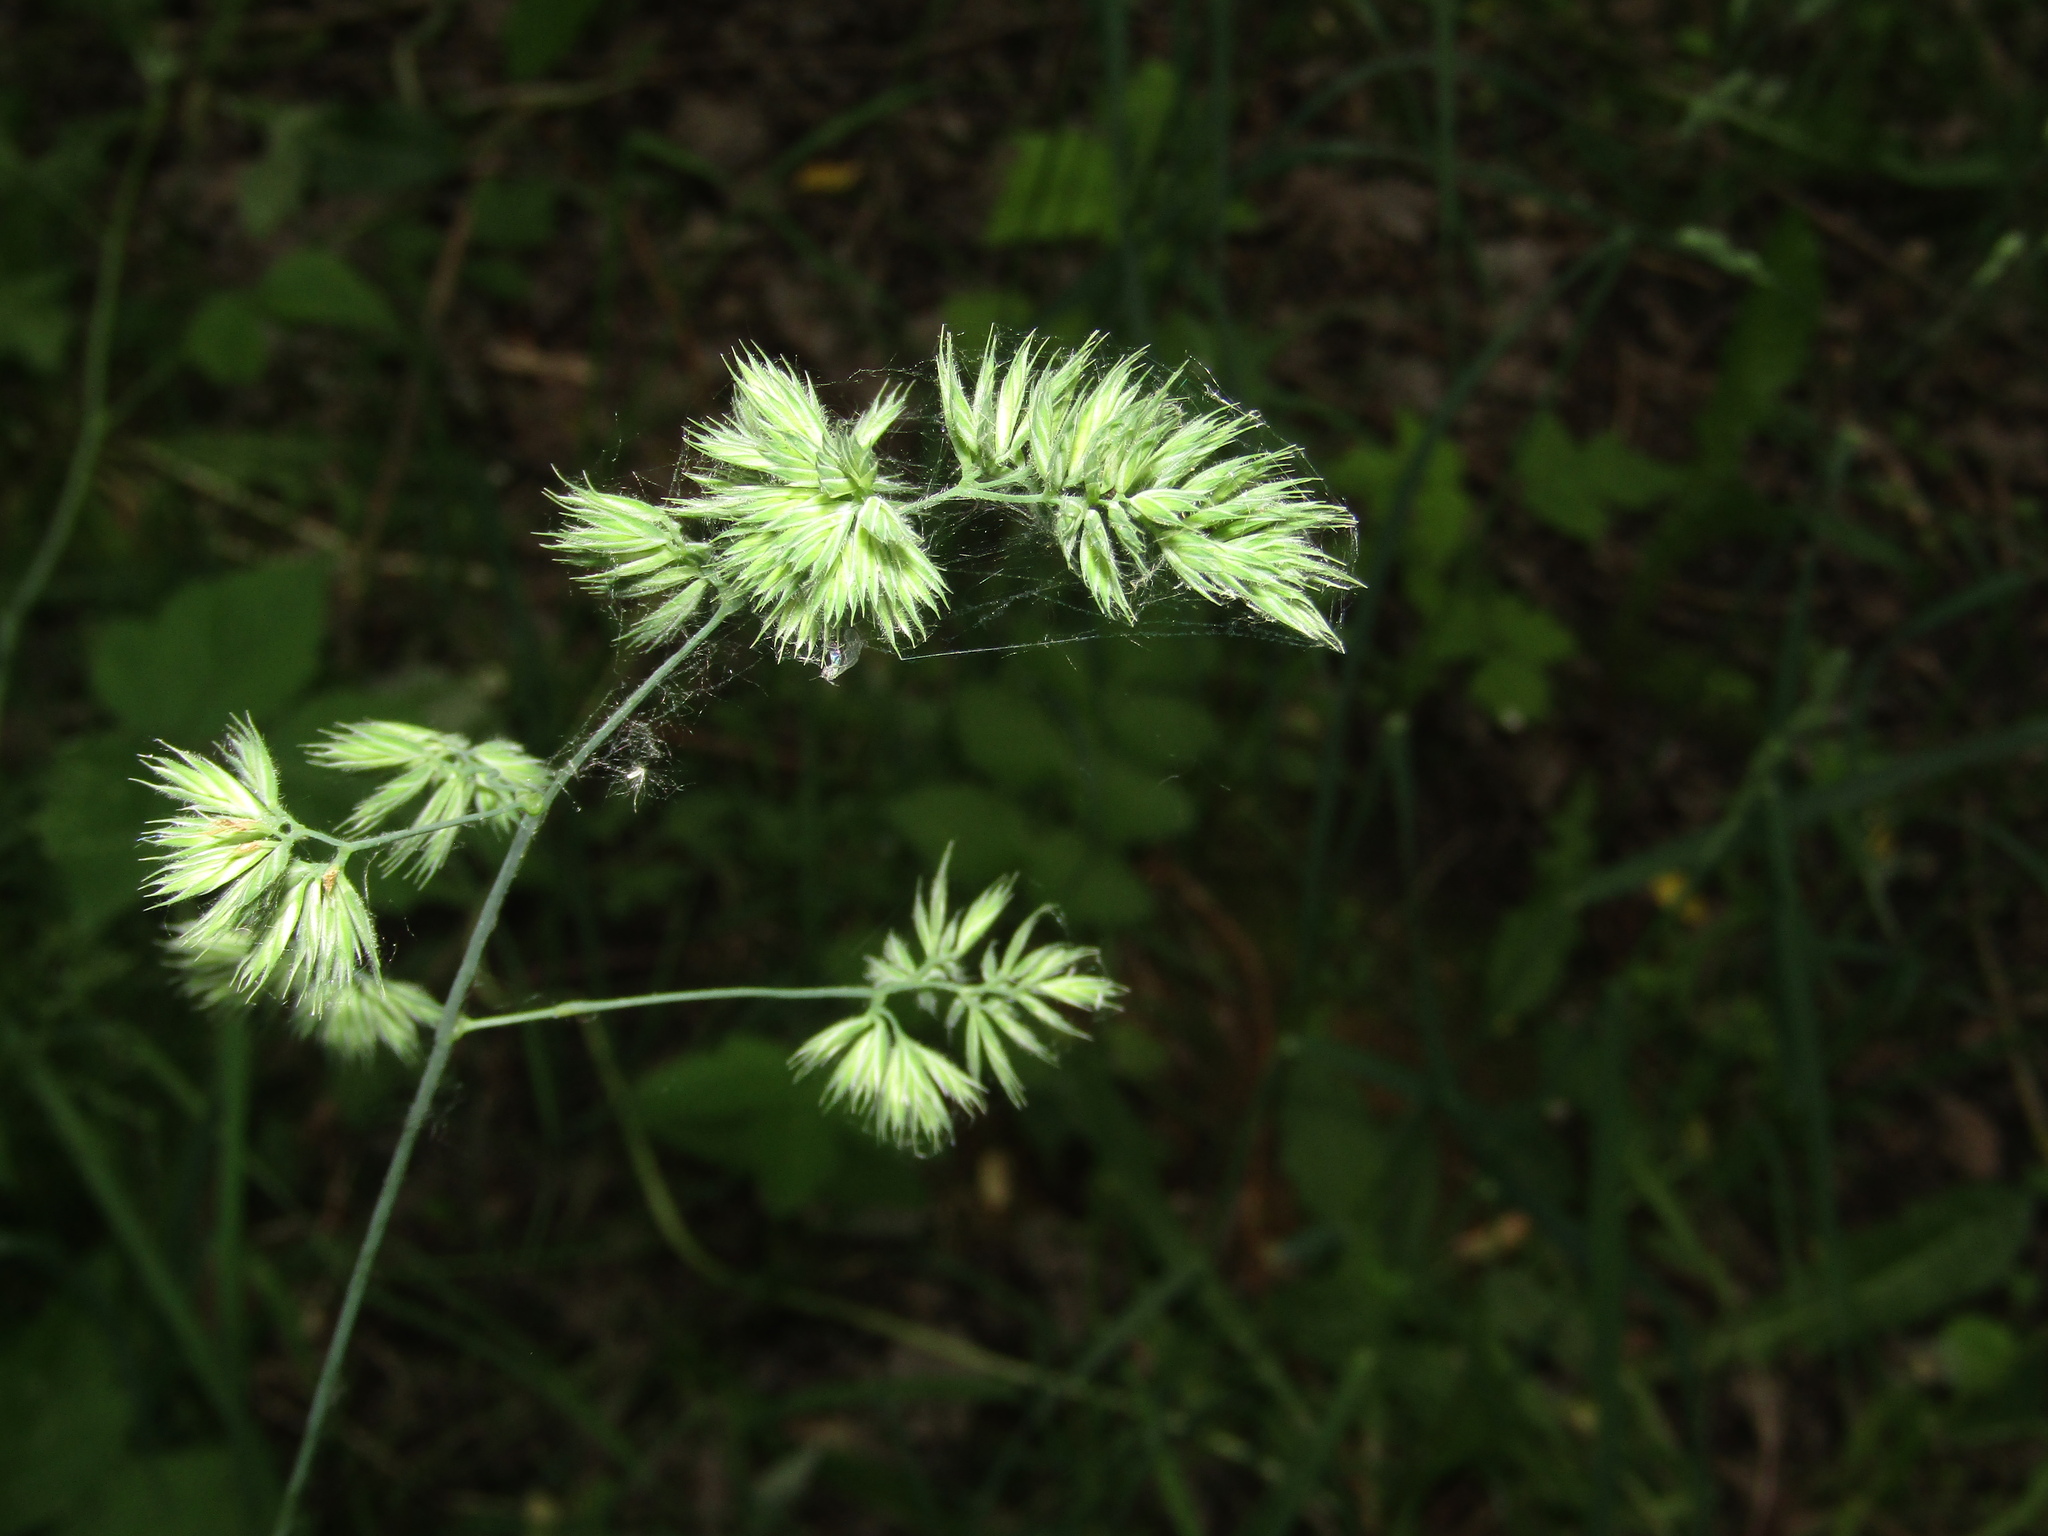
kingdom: Plantae
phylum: Tracheophyta
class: Liliopsida
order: Poales
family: Poaceae
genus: Dactylis
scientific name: Dactylis glomerata
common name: Orchardgrass
